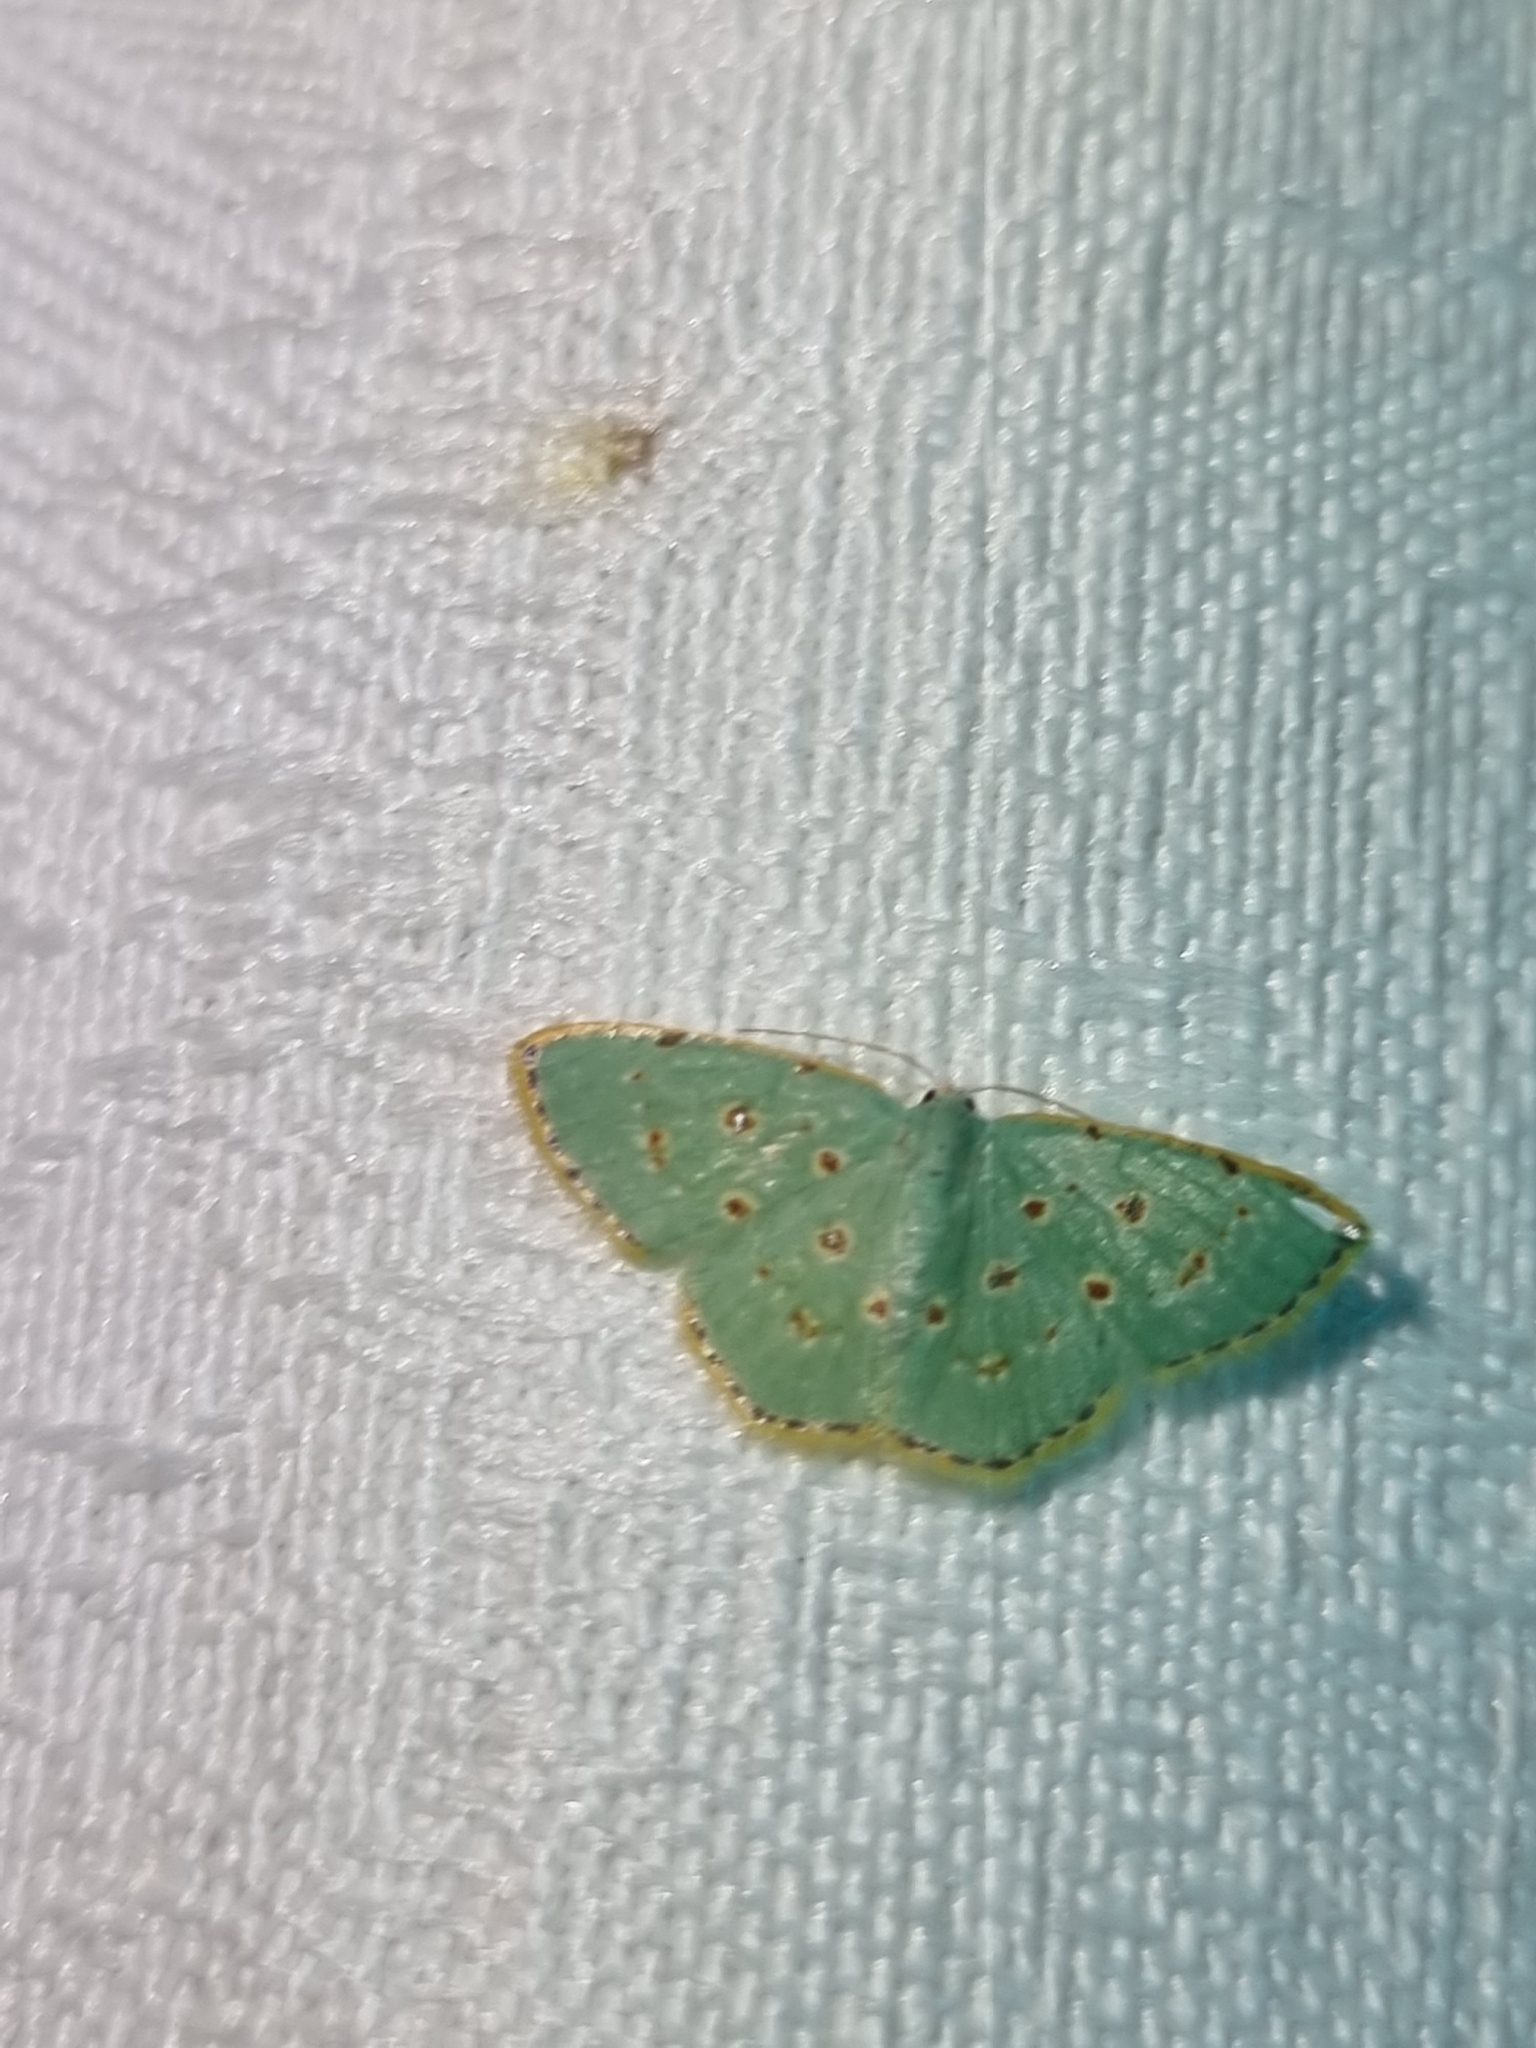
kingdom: Animalia
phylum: Arthropoda
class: Insecta
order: Lepidoptera
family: Geometridae
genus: Comostola
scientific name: Comostola laesaria
